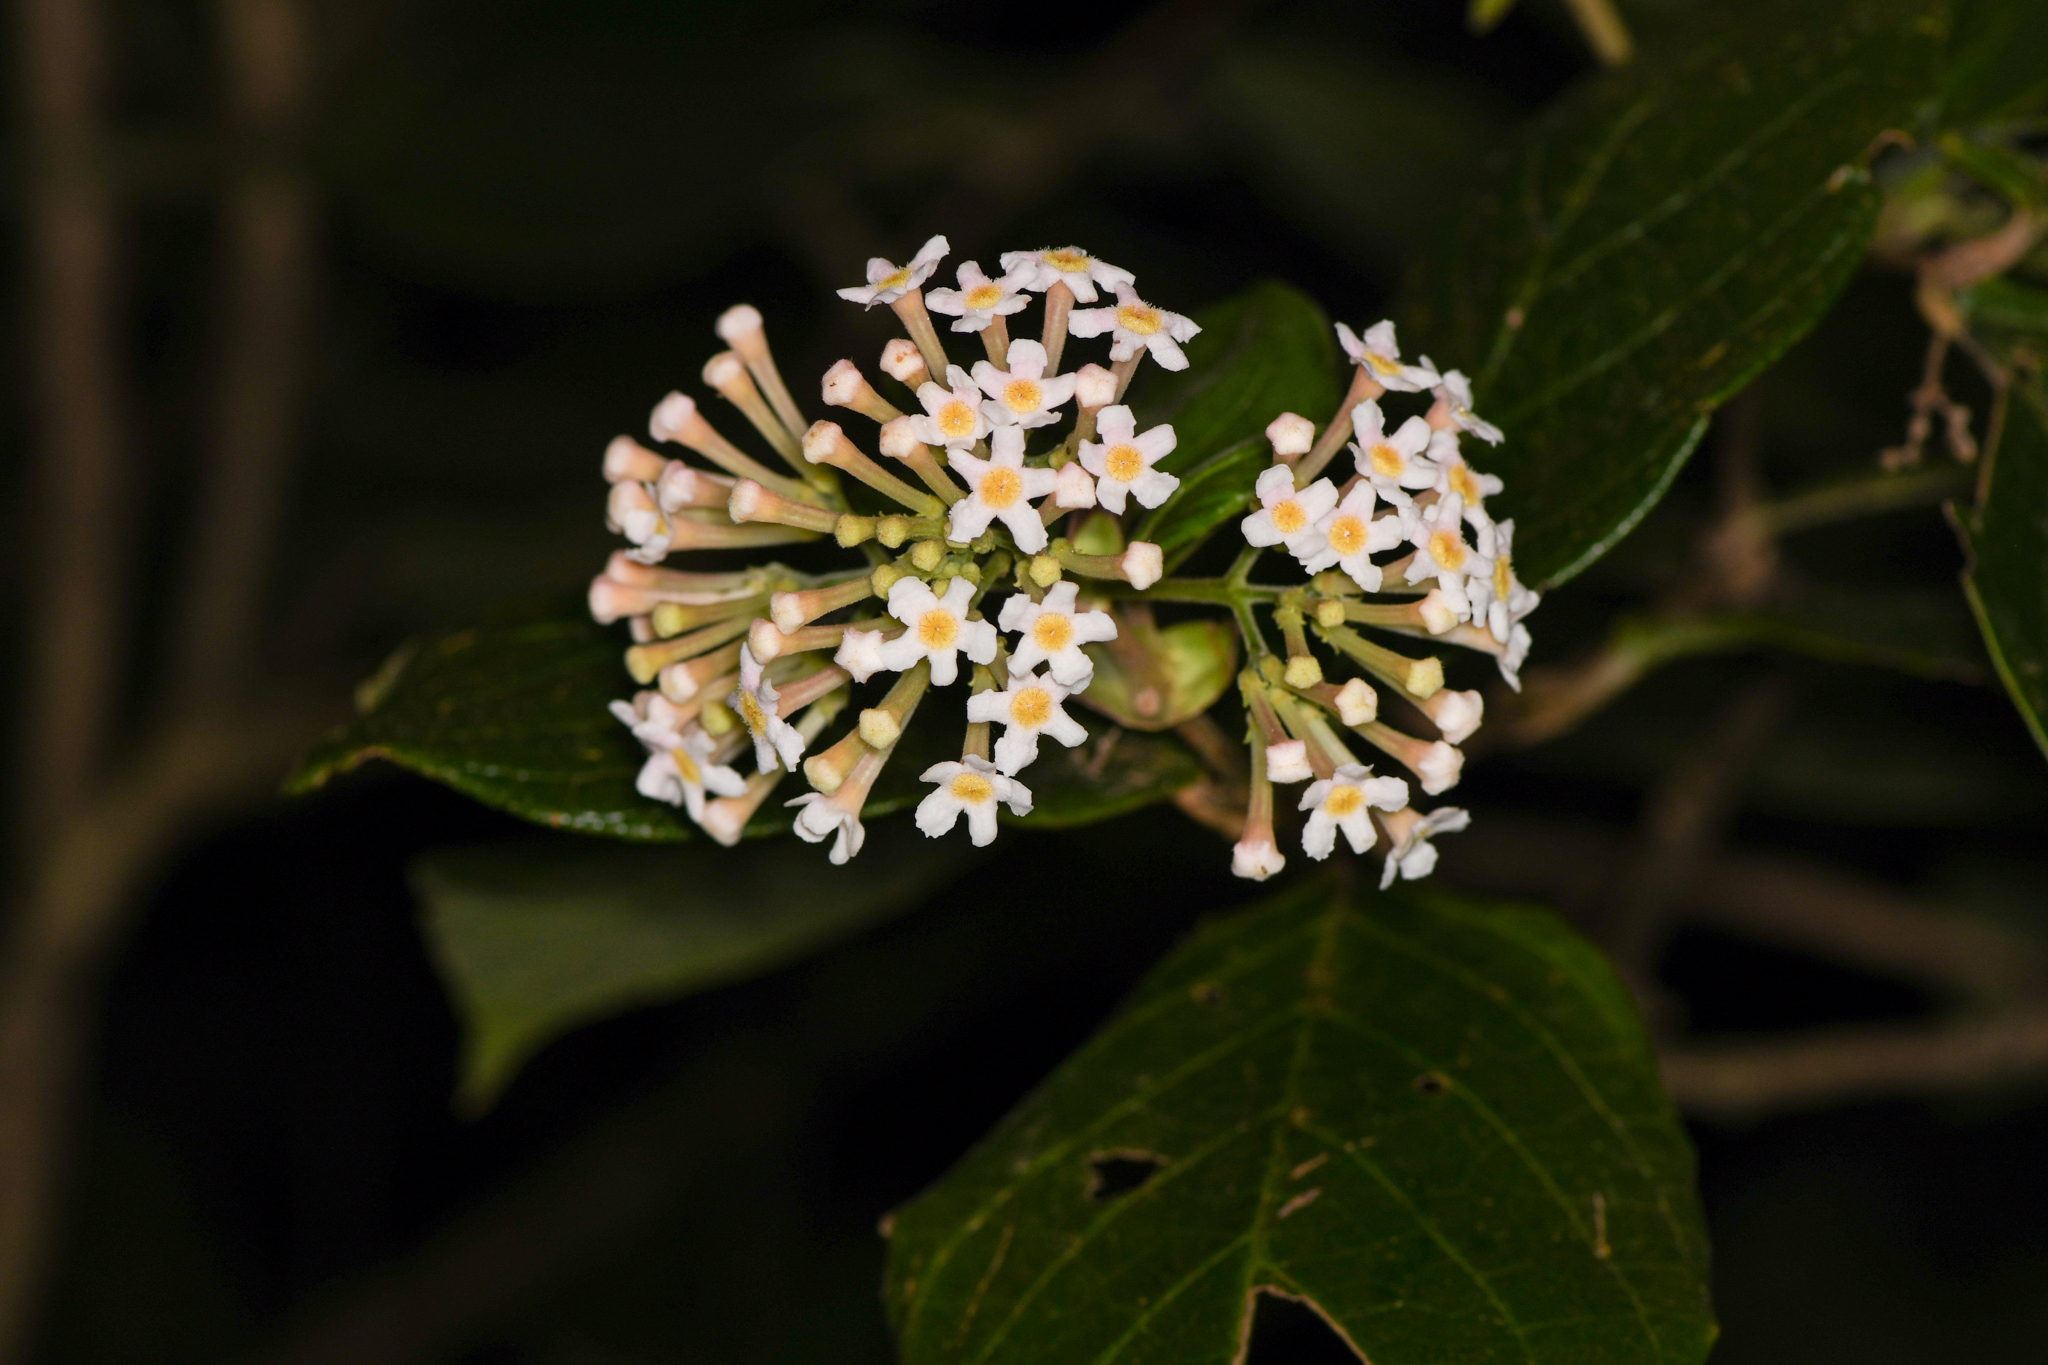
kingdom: Plantae
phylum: Tracheophyta
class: Magnoliopsida
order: Gentianales
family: Rubiaceae
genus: Rogiera
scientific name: Rogiera amoena
